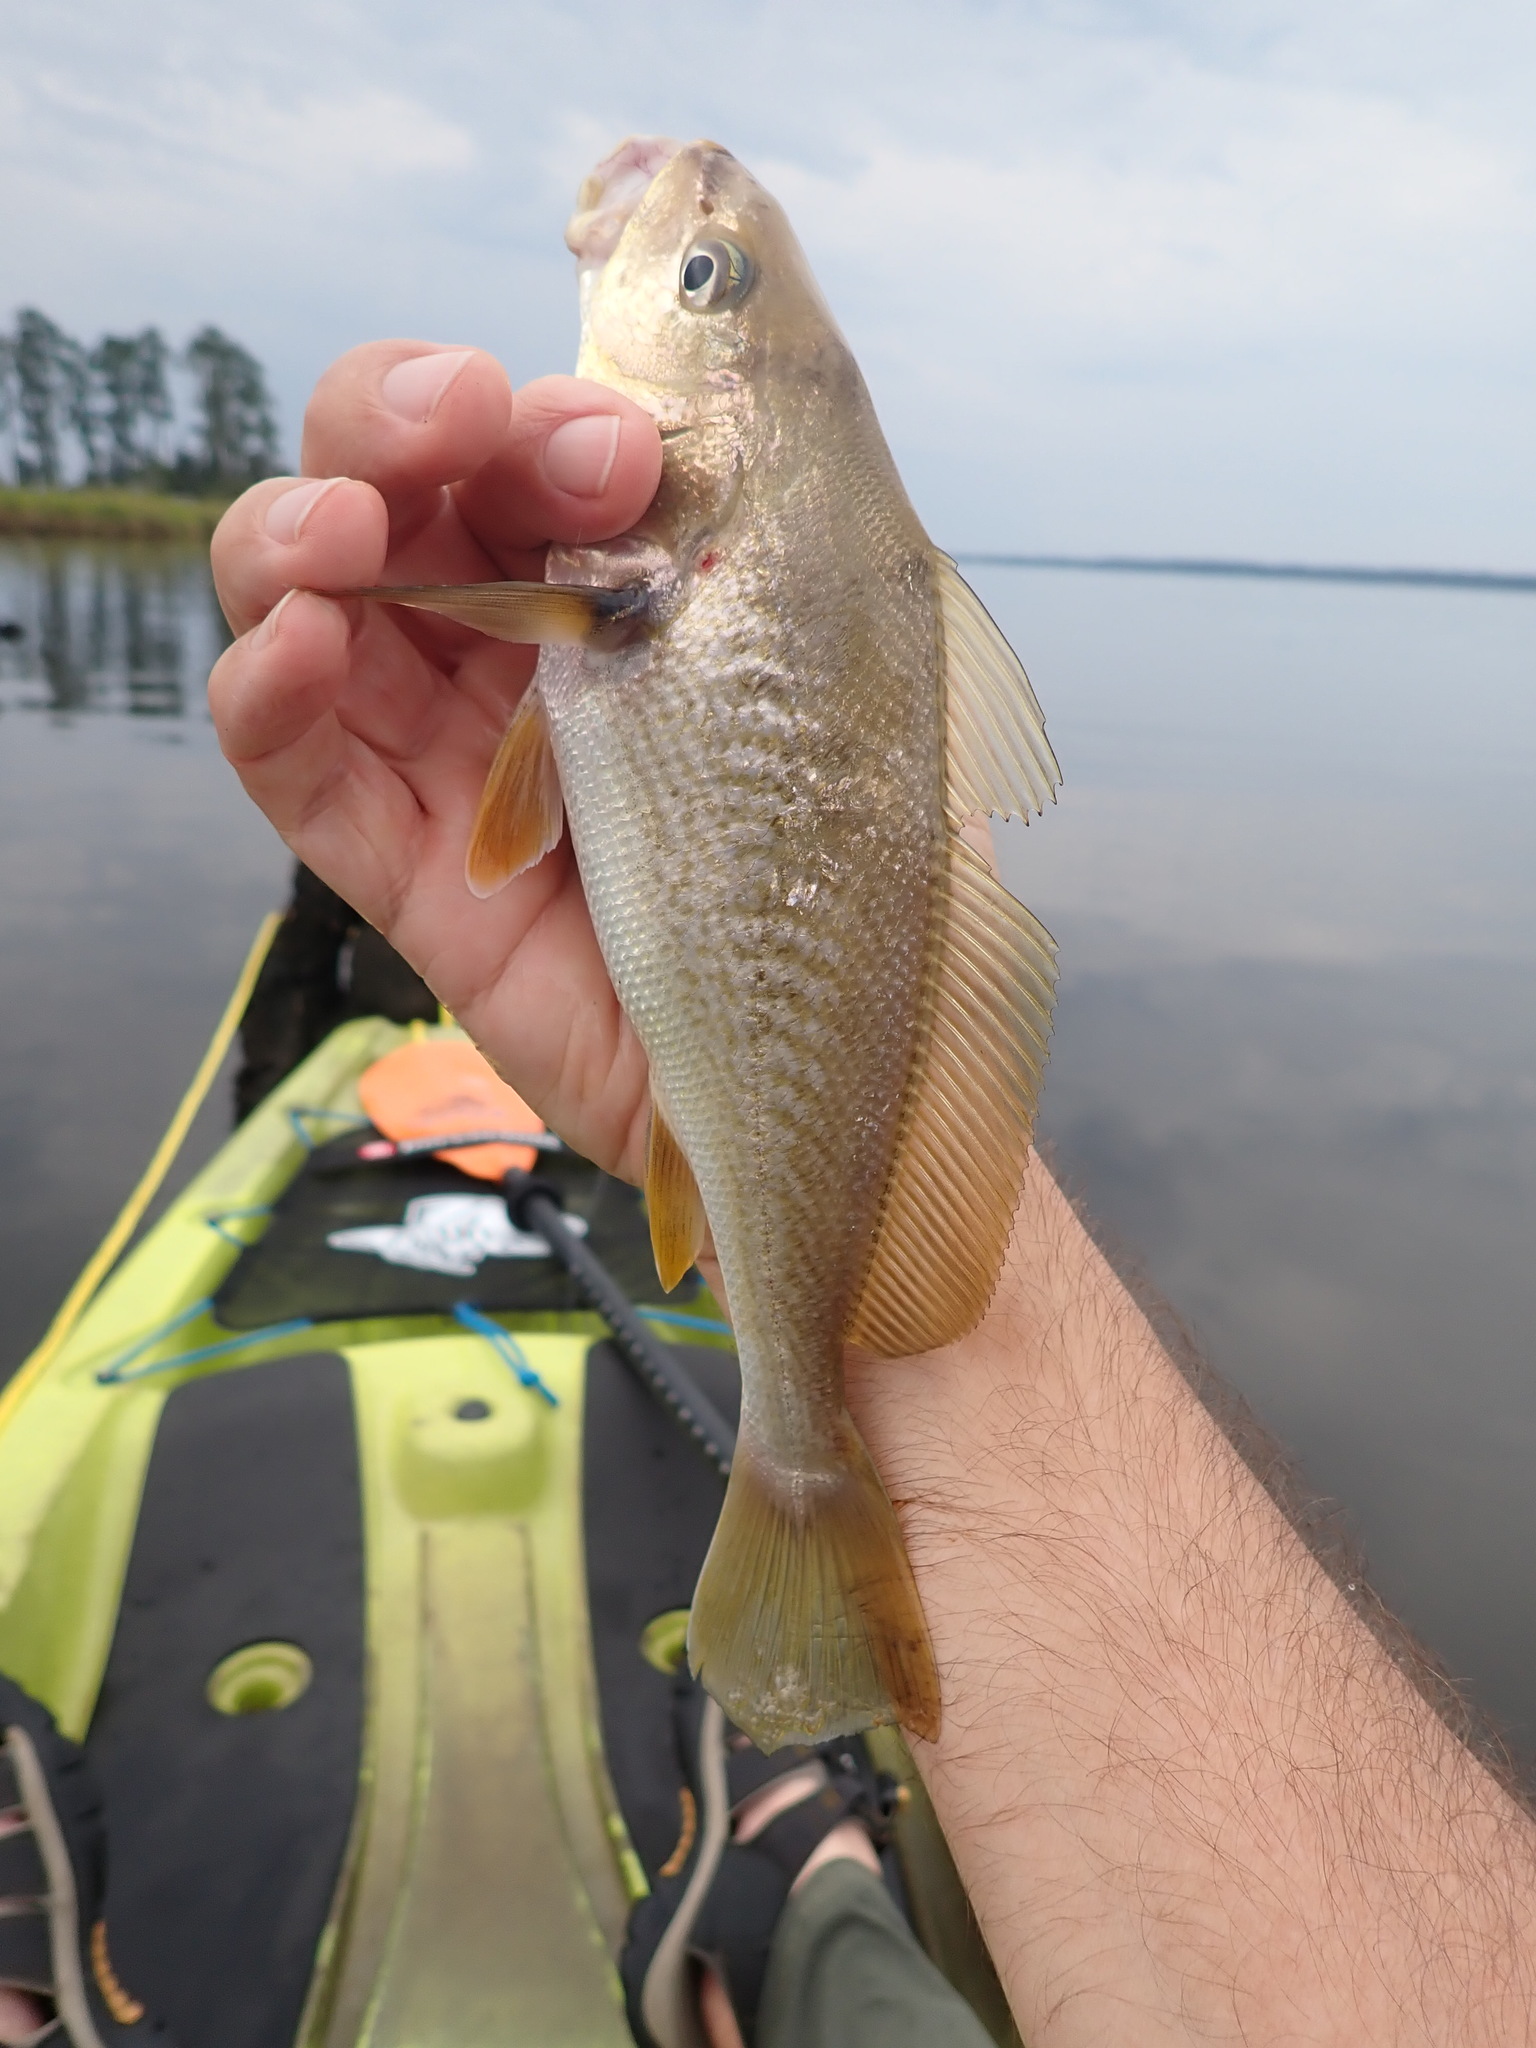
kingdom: Animalia
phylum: Chordata
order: Perciformes
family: Sciaenidae
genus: Micropogonias
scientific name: Micropogonias undulatus
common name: Atlantic croaker
